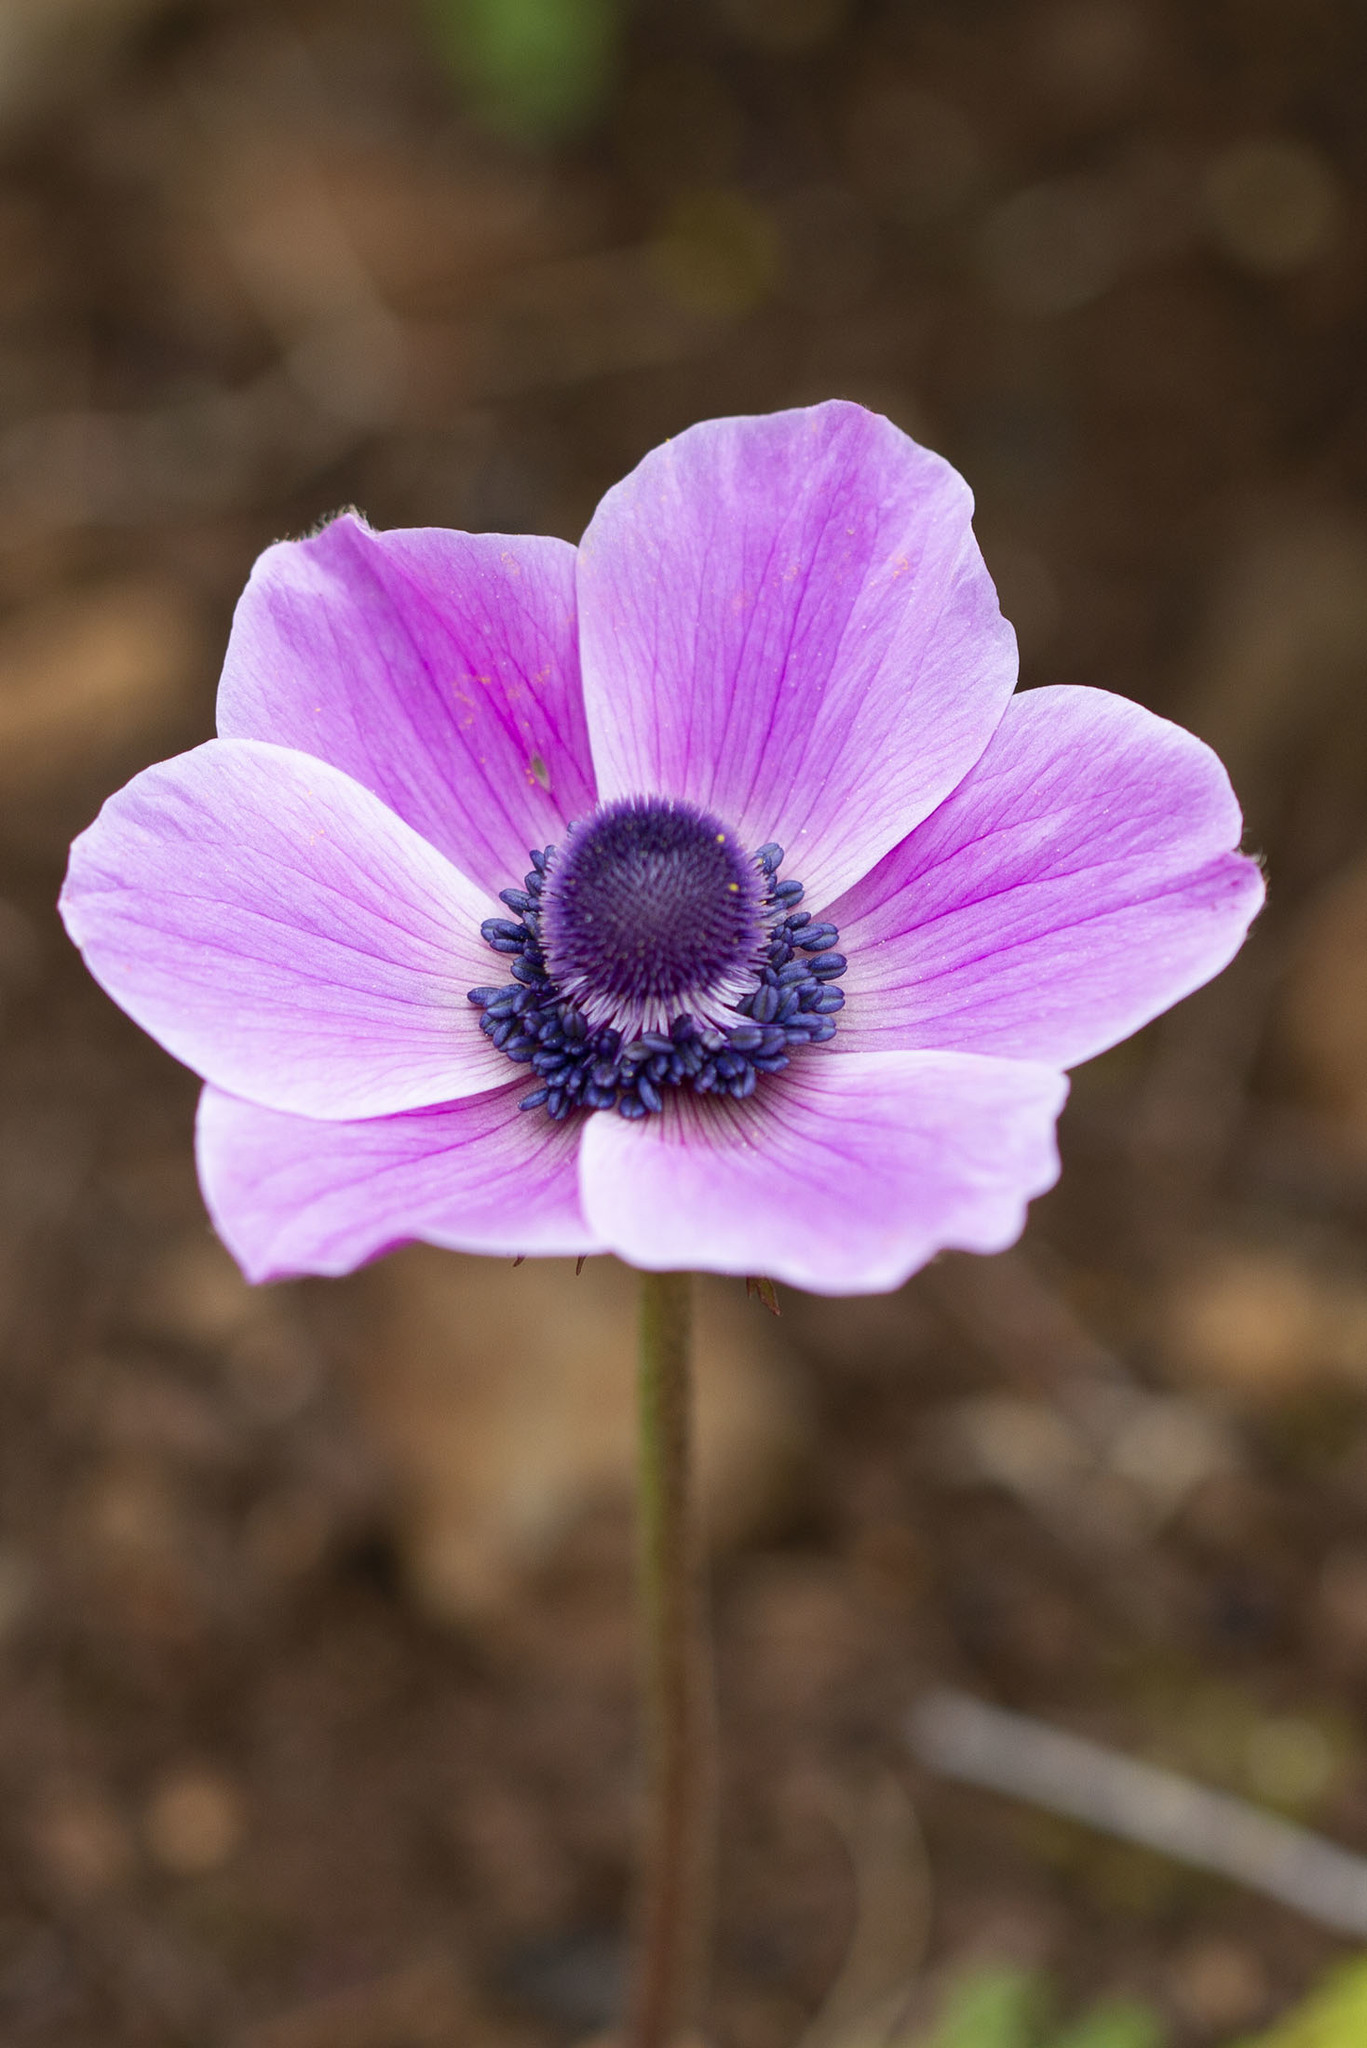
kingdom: Plantae
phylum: Tracheophyta
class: Magnoliopsida
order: Ranunculales
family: Ranunculaceae
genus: Anemone
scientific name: Anemone coronaria
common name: Poppy anemone
